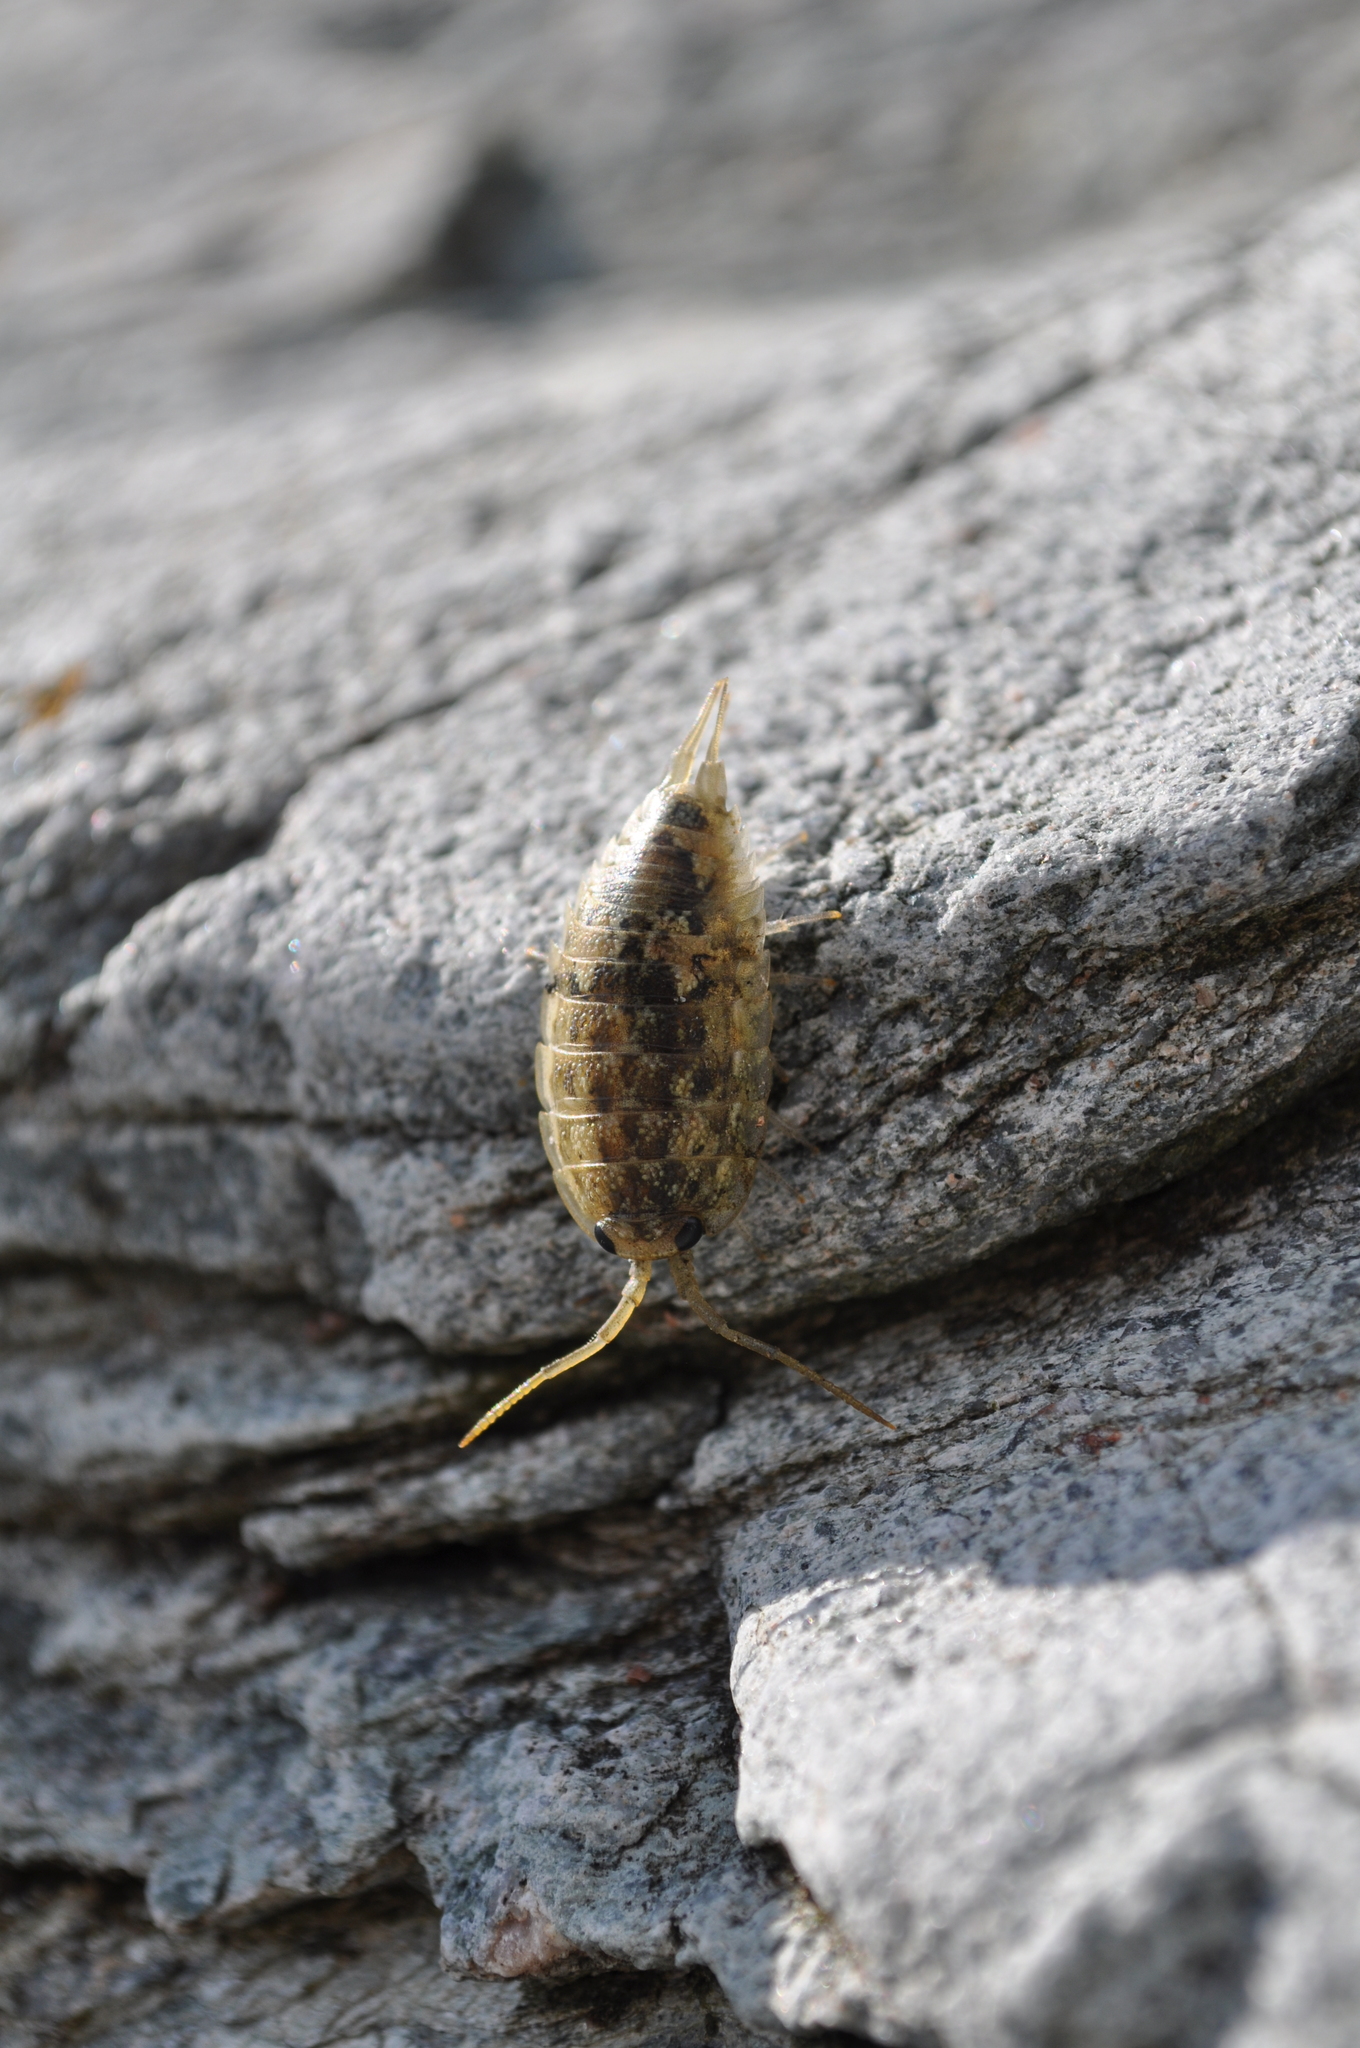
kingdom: Animalia
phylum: Arthropoda
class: Malacostraca
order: Isopoda
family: Ligiidae
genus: Ligia
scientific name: Ligia oceanica
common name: Sea slater
